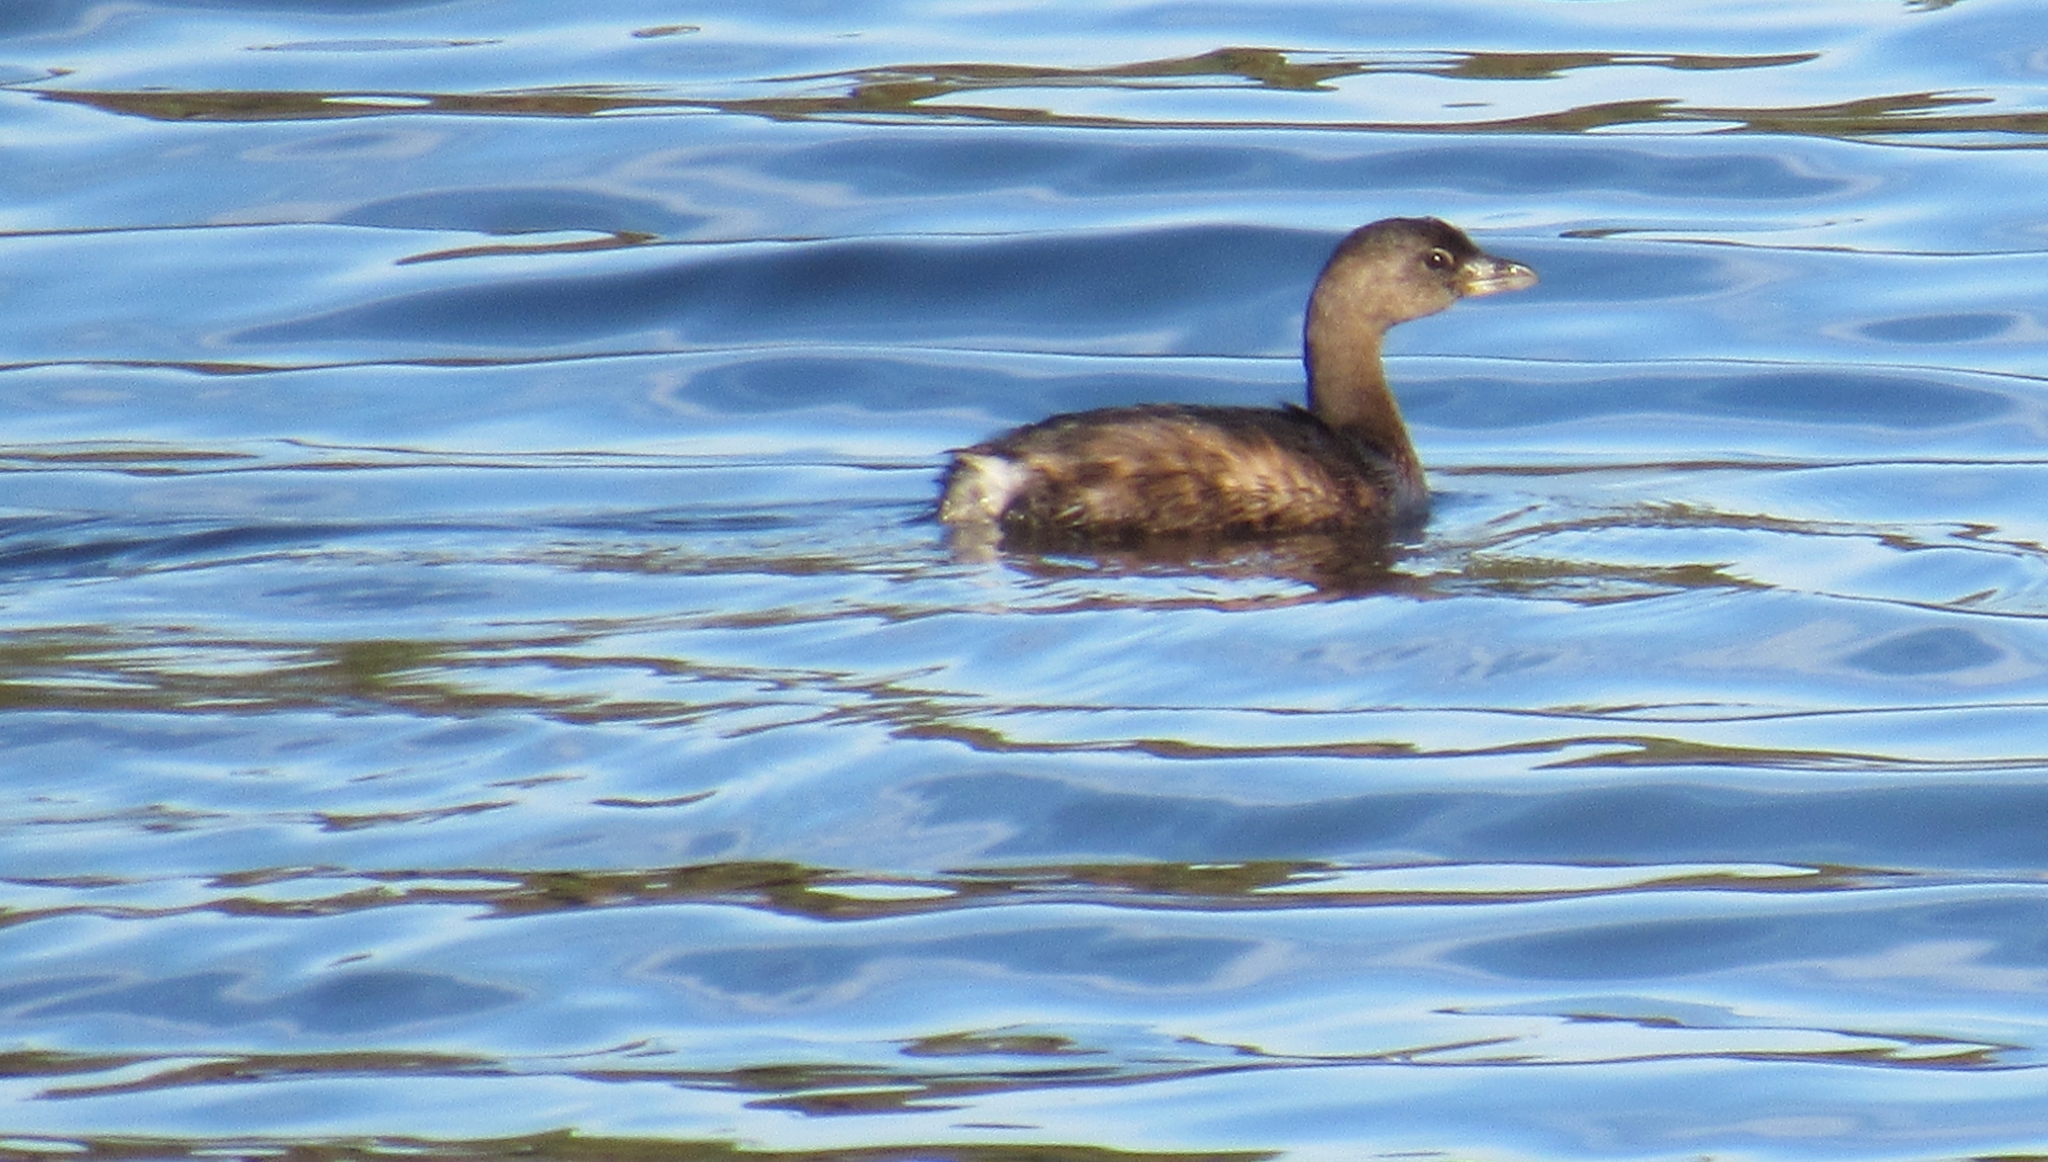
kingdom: Animalia
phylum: Chordata
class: Aves
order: Podicipediformes
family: Podicipedidae
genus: Podilymbus
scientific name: Podilymbus podiceps
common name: Pied-billed grebe
